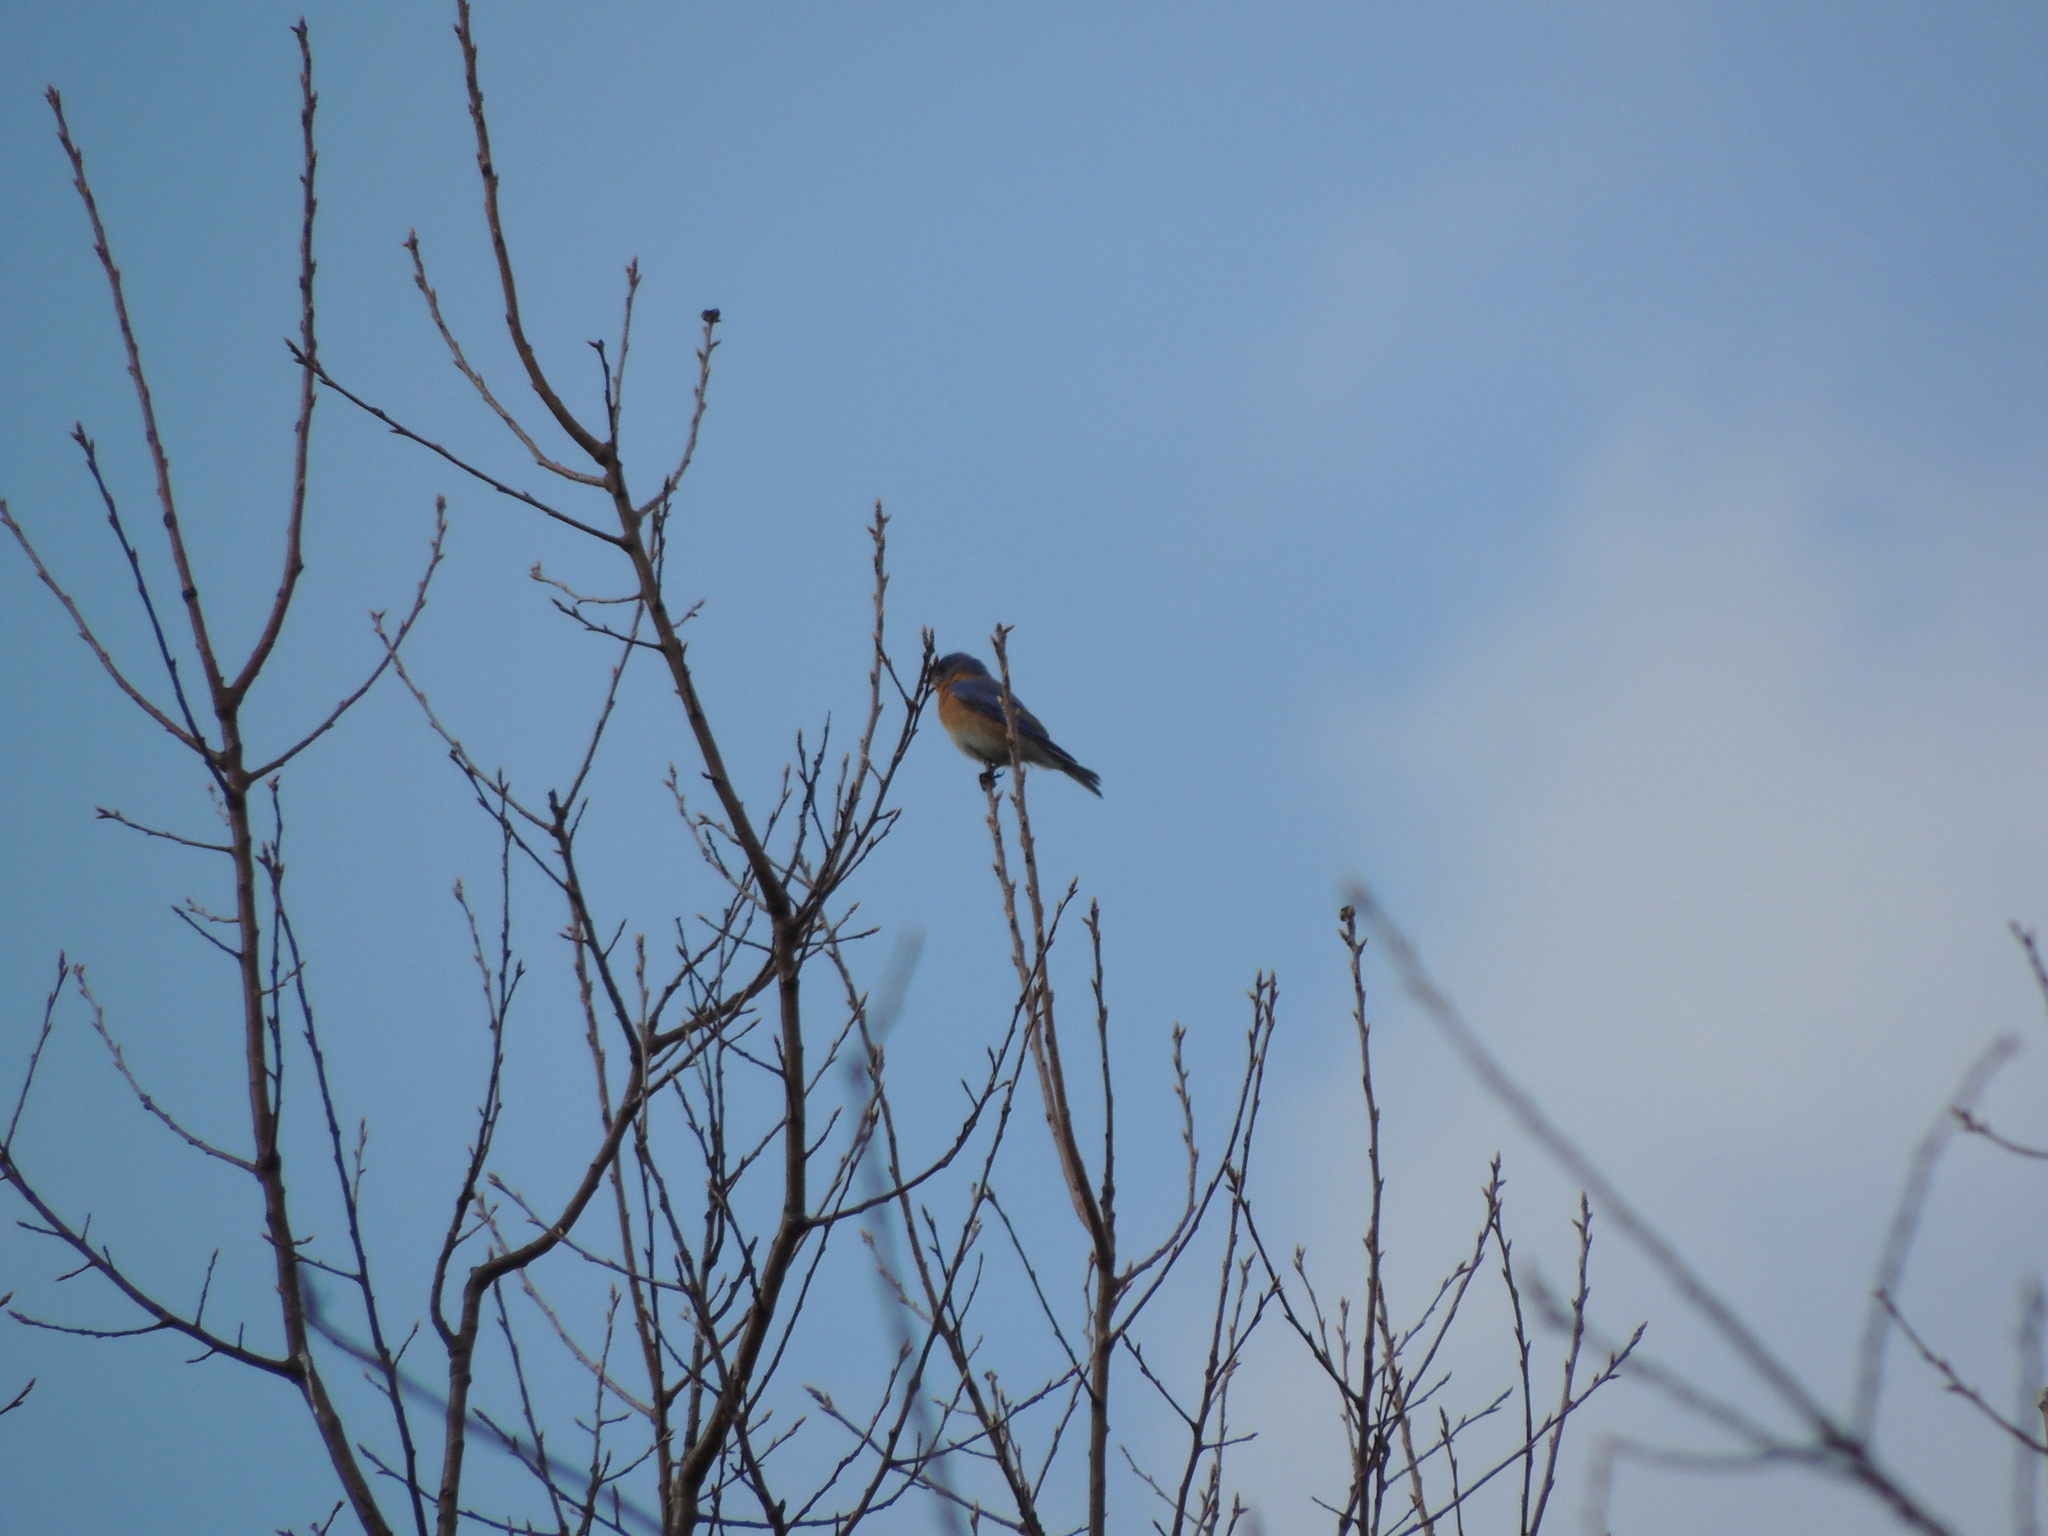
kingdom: Animalia
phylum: Chordata
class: Aves
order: Passeriformes
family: Turdidae
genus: Sialia
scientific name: Sialia sialis
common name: Eastern bluebird
